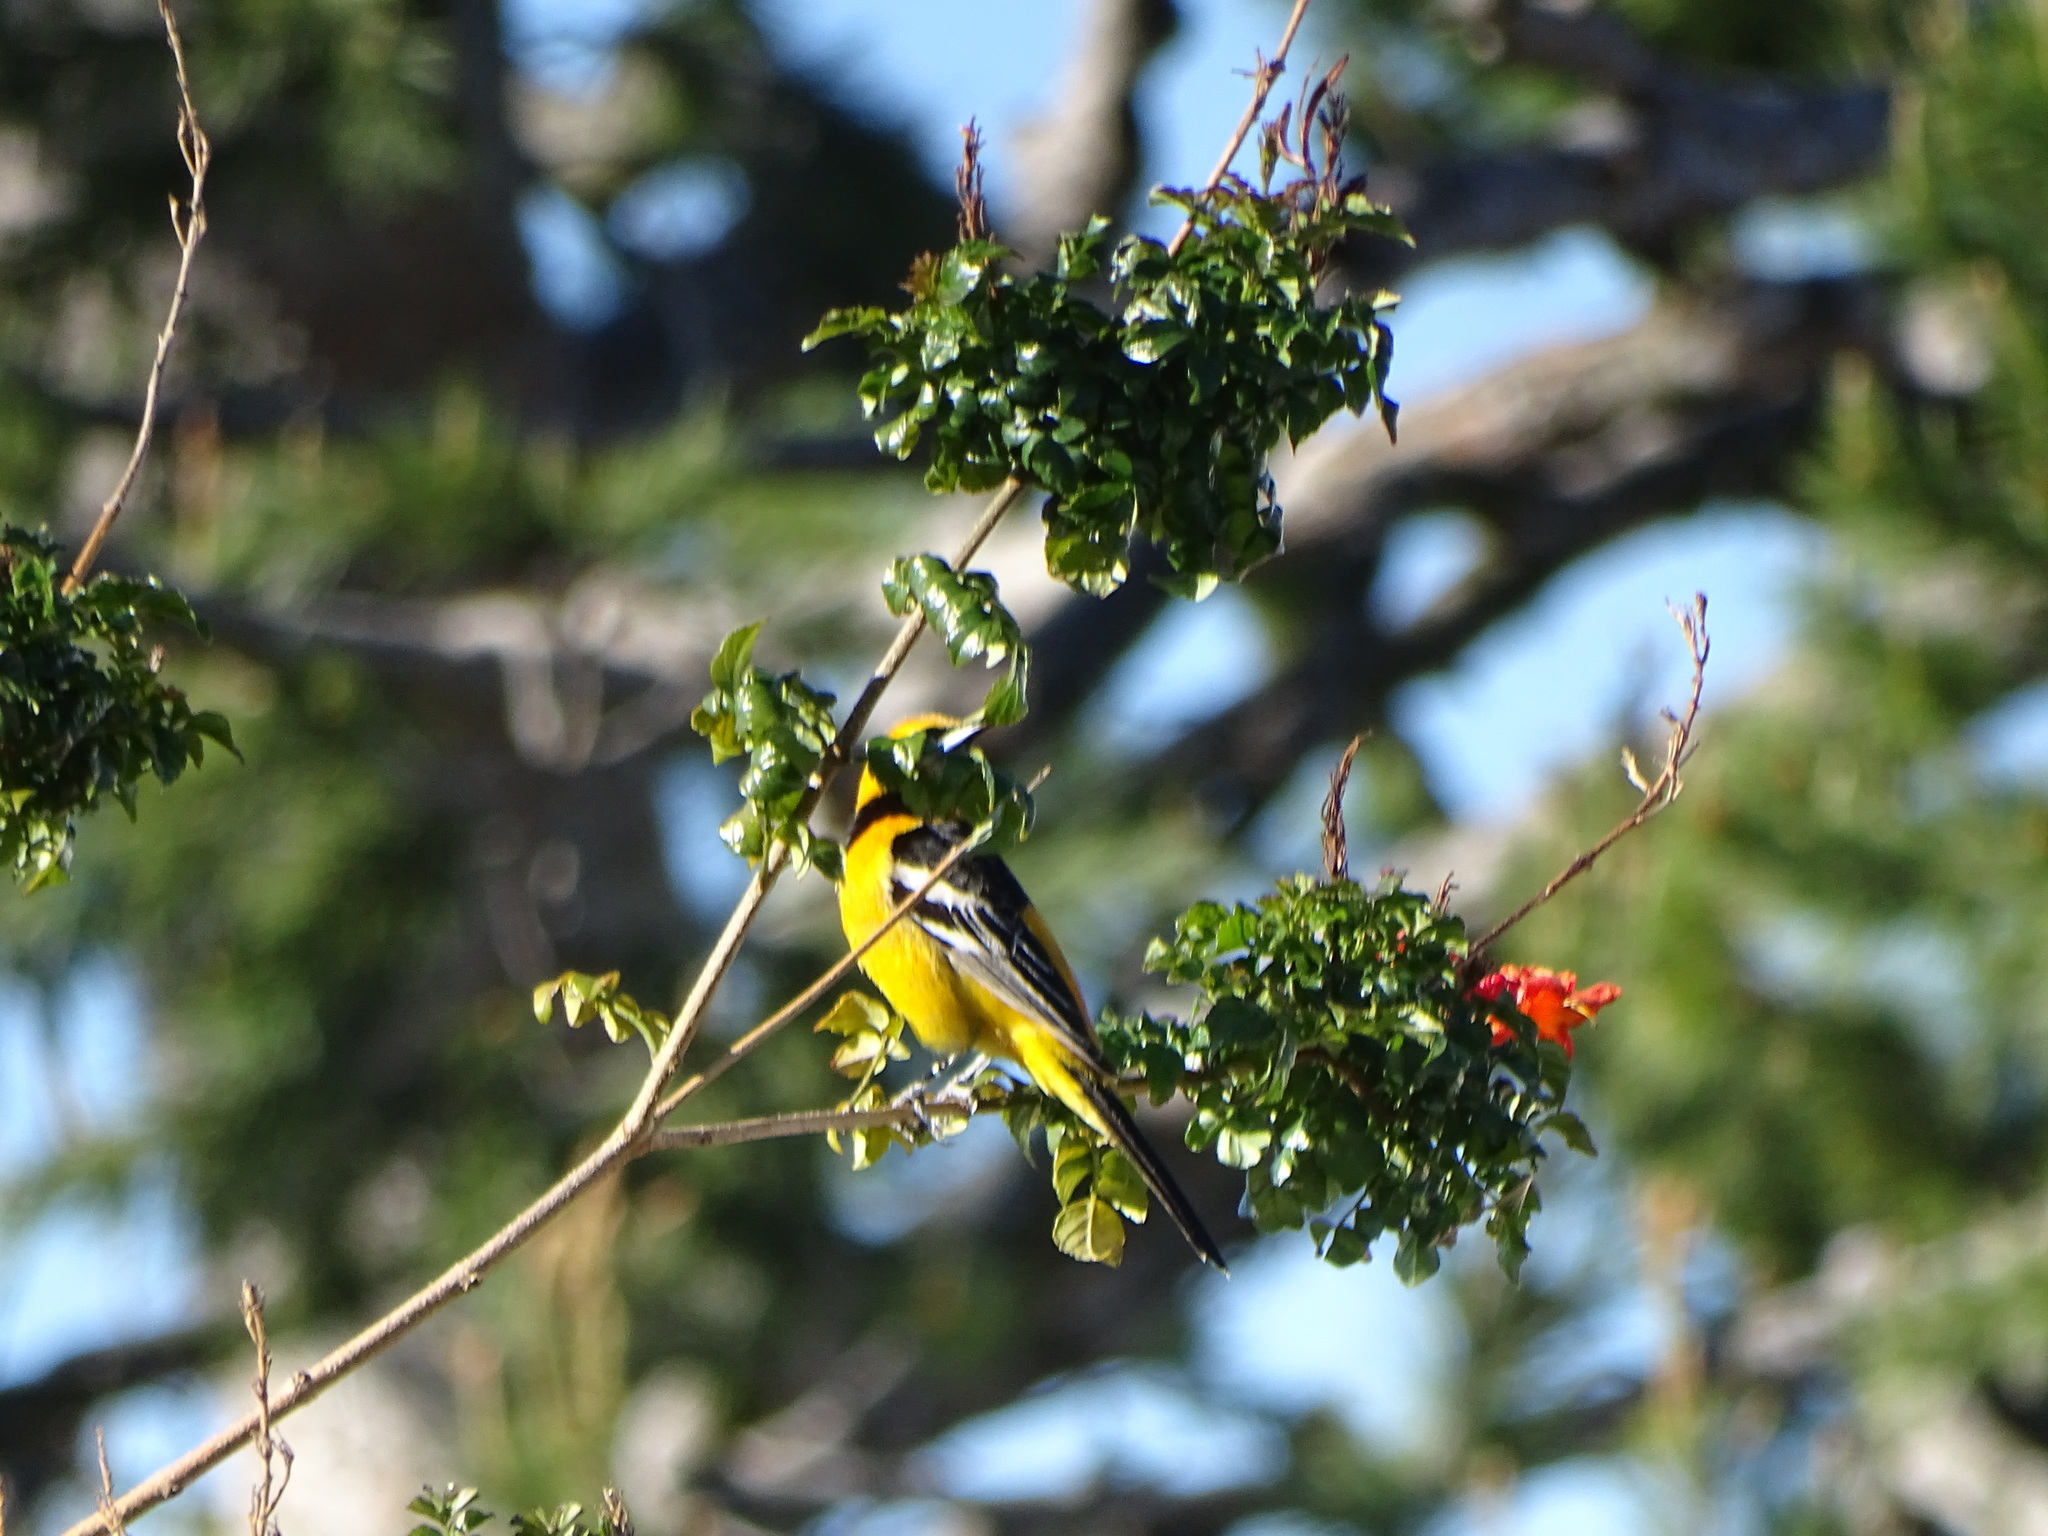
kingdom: Animalia
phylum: Chordata
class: Aves
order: Passeriformes
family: Icteridae
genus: Icterus
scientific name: Icterus cucullatus
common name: Hooded oriole
